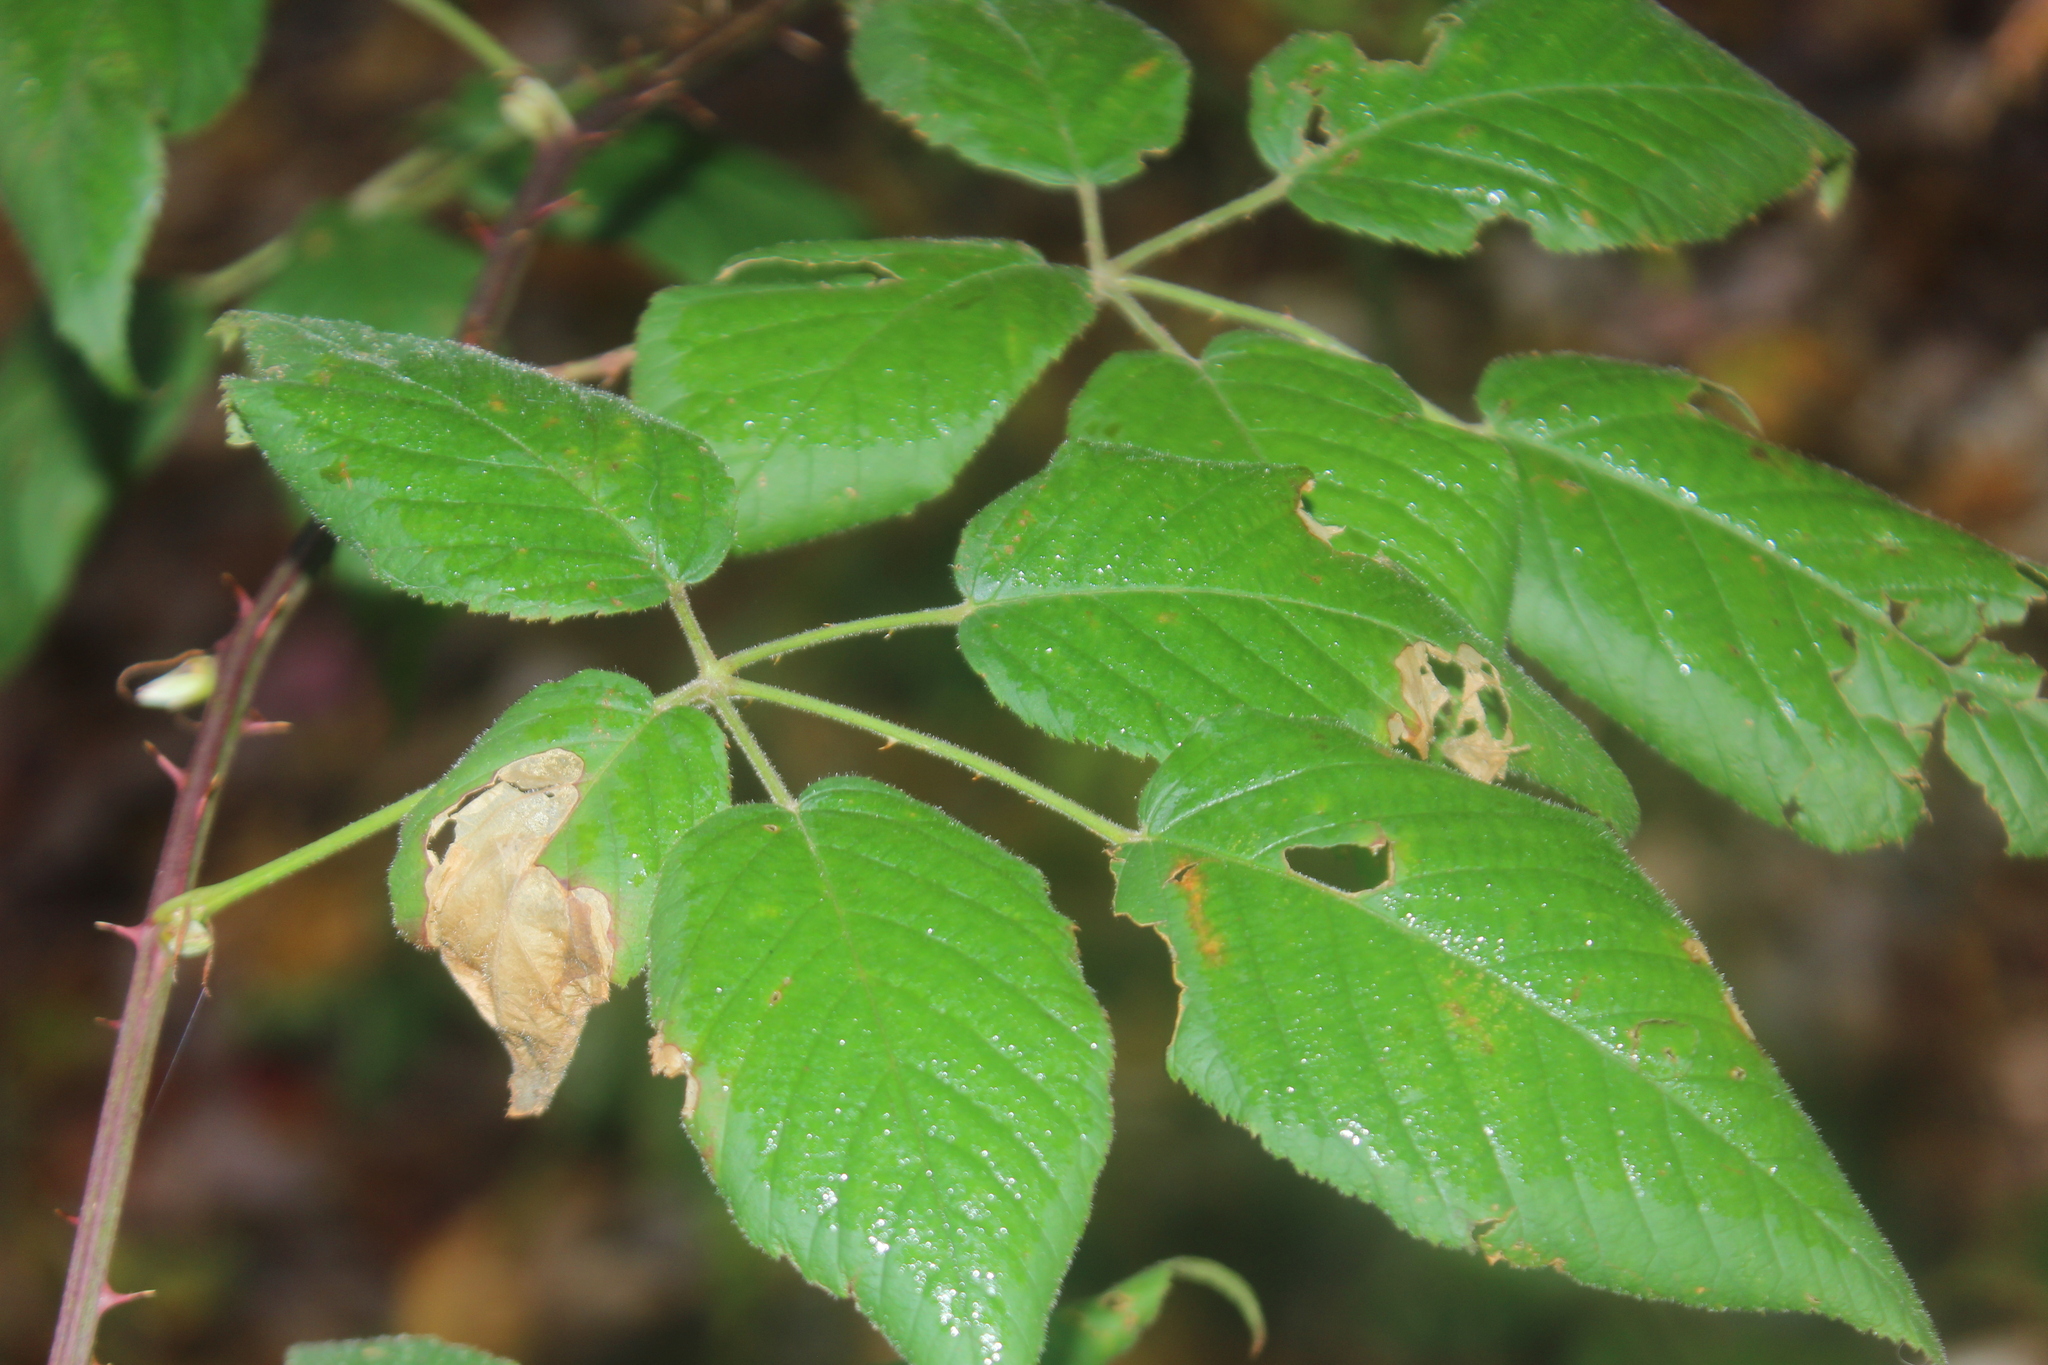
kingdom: Animalia
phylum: Arthropoda
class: Insecta
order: Hymenoptera
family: Tenthredinidae
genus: Metallus
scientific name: Metallus rohweri
